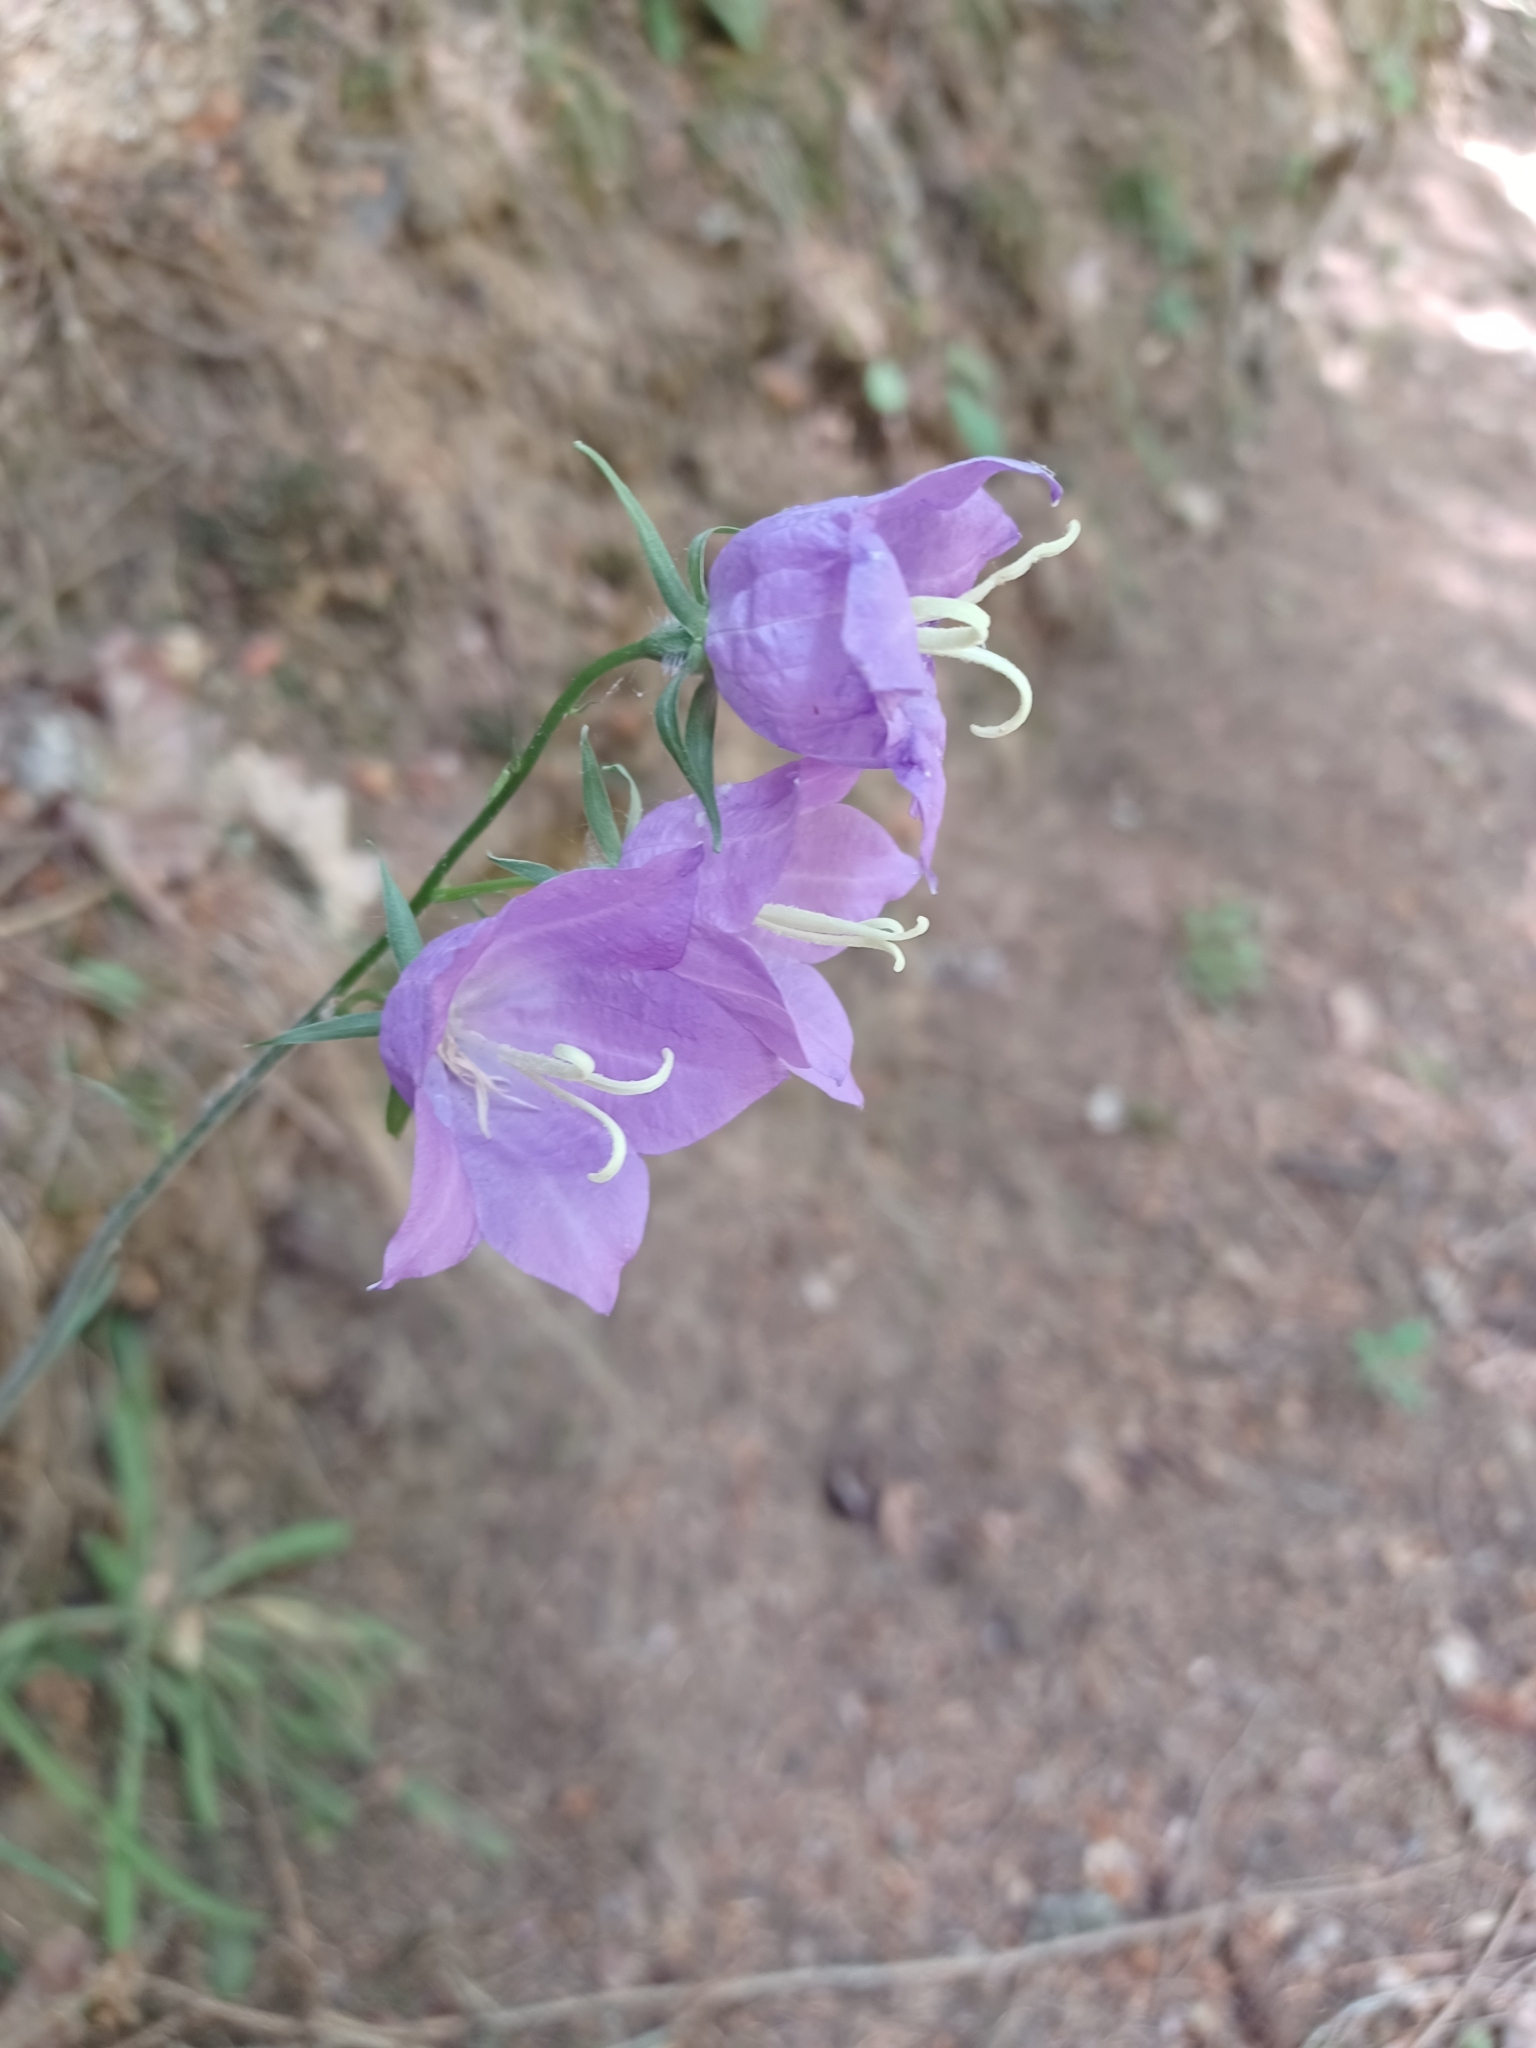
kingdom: Plantae
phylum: Tracheophyta
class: Magnoliopsida
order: Asterales
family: Campanulaceae
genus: Campanula
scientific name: Campanula persicifolia
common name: Peach-leaved bellflower
